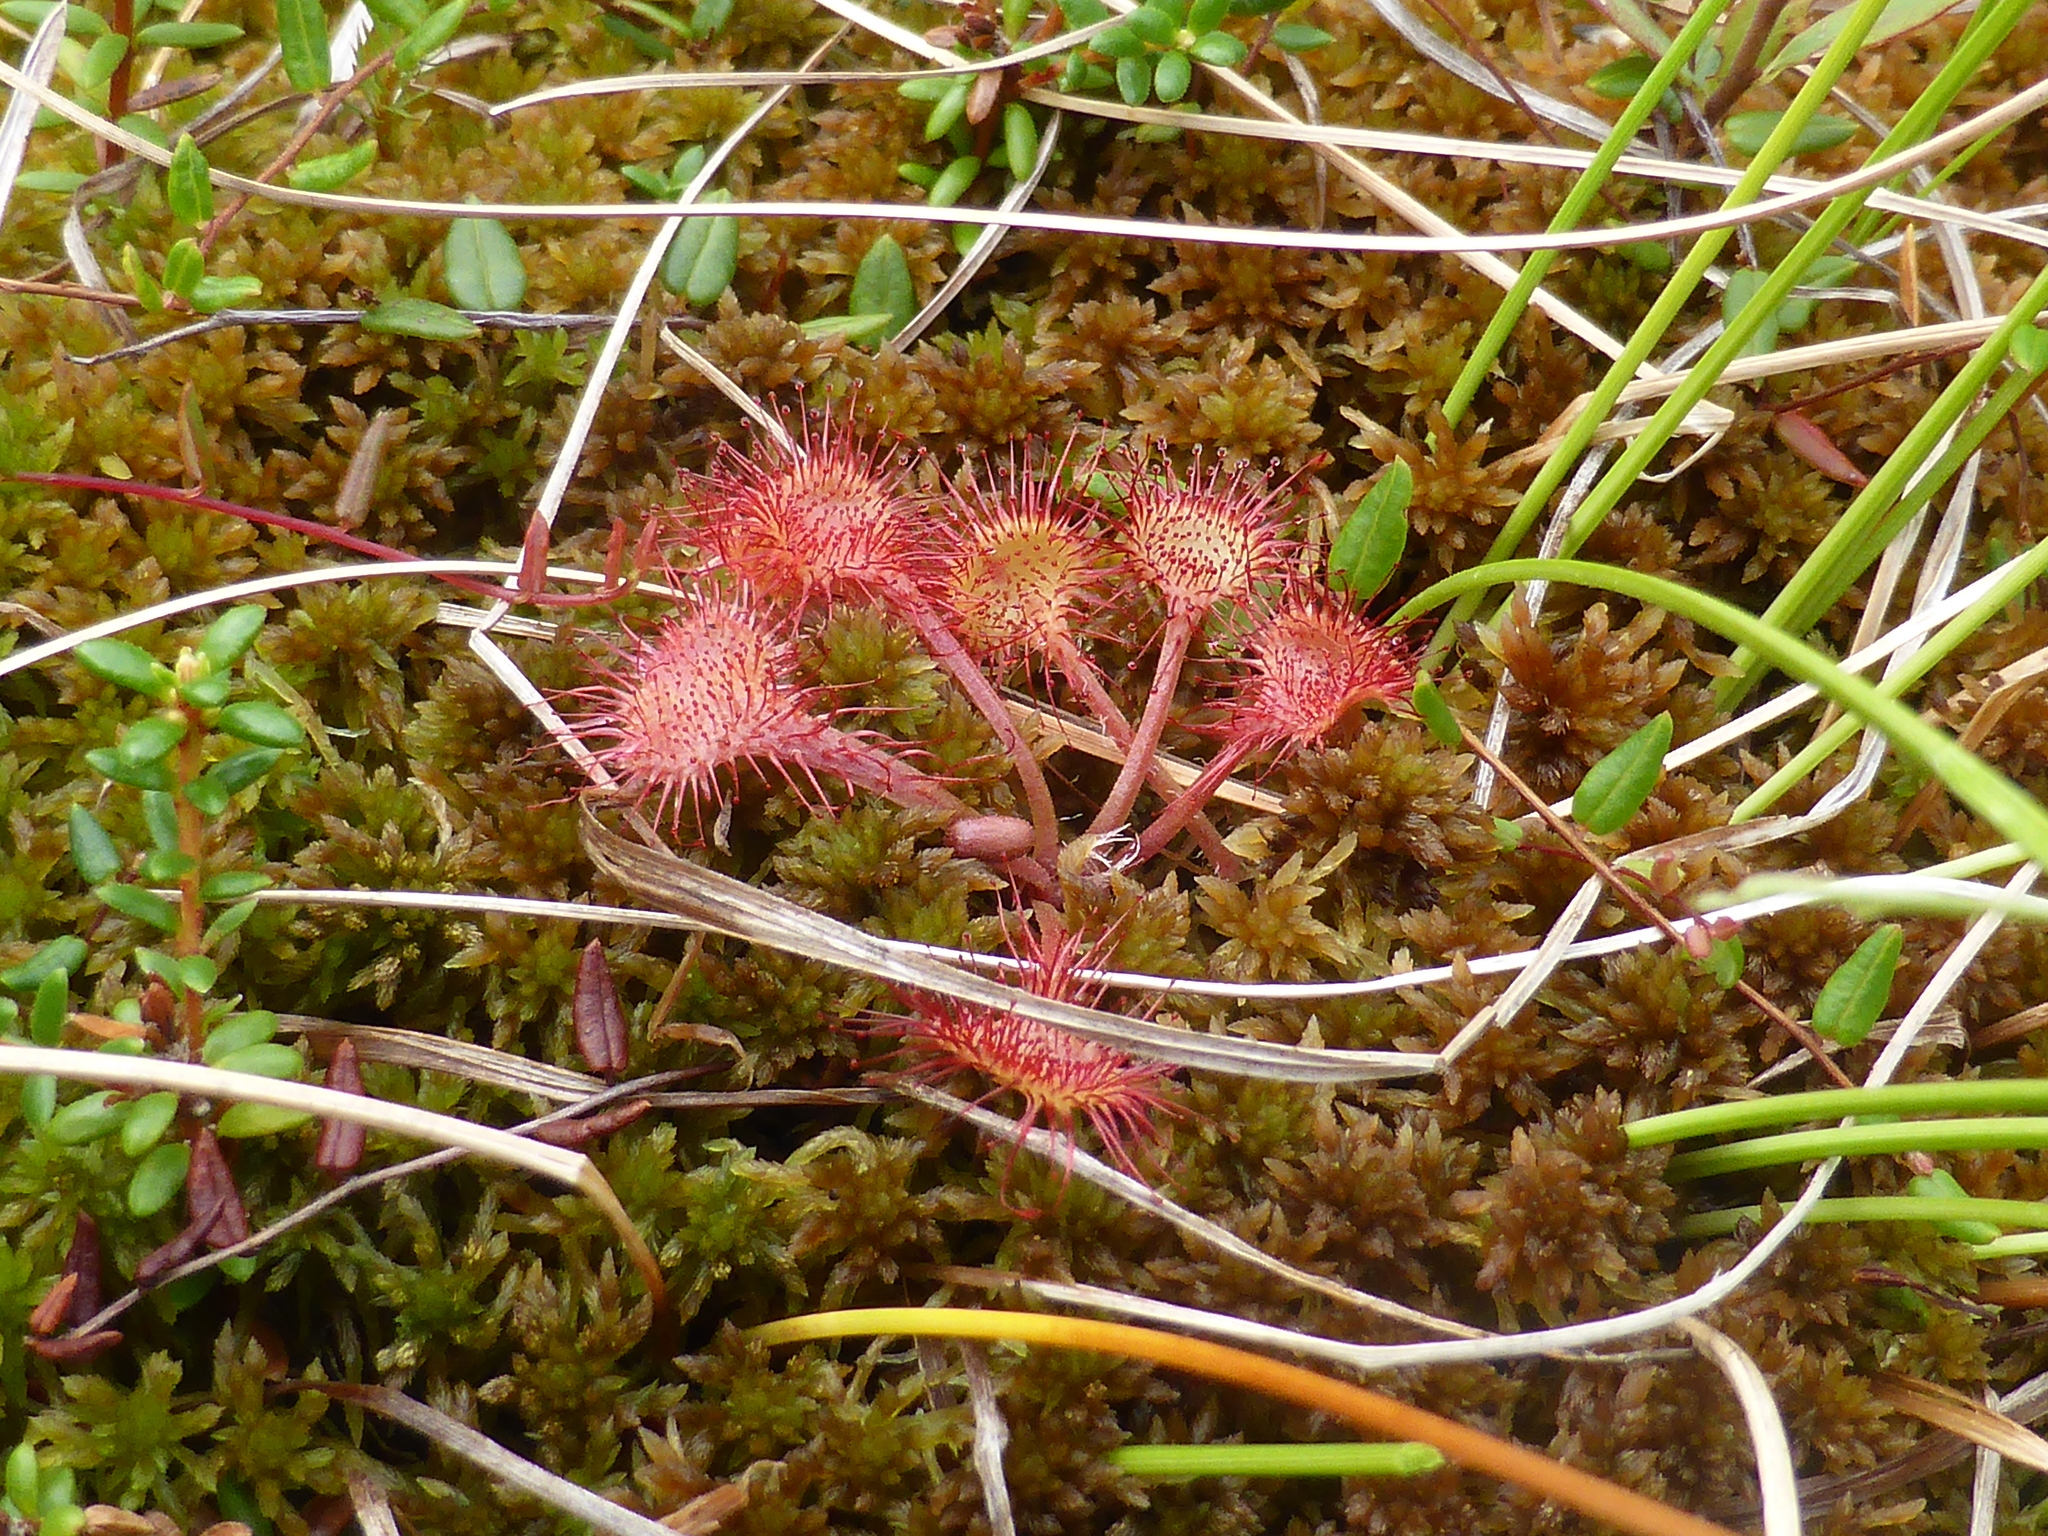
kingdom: Plantae
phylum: Tracheophyta
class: Magnoliopsida
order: Caryophyllales
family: Droseraceae
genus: Drosera
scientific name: Drosera rotundifolia
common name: Round-leaved sundew
